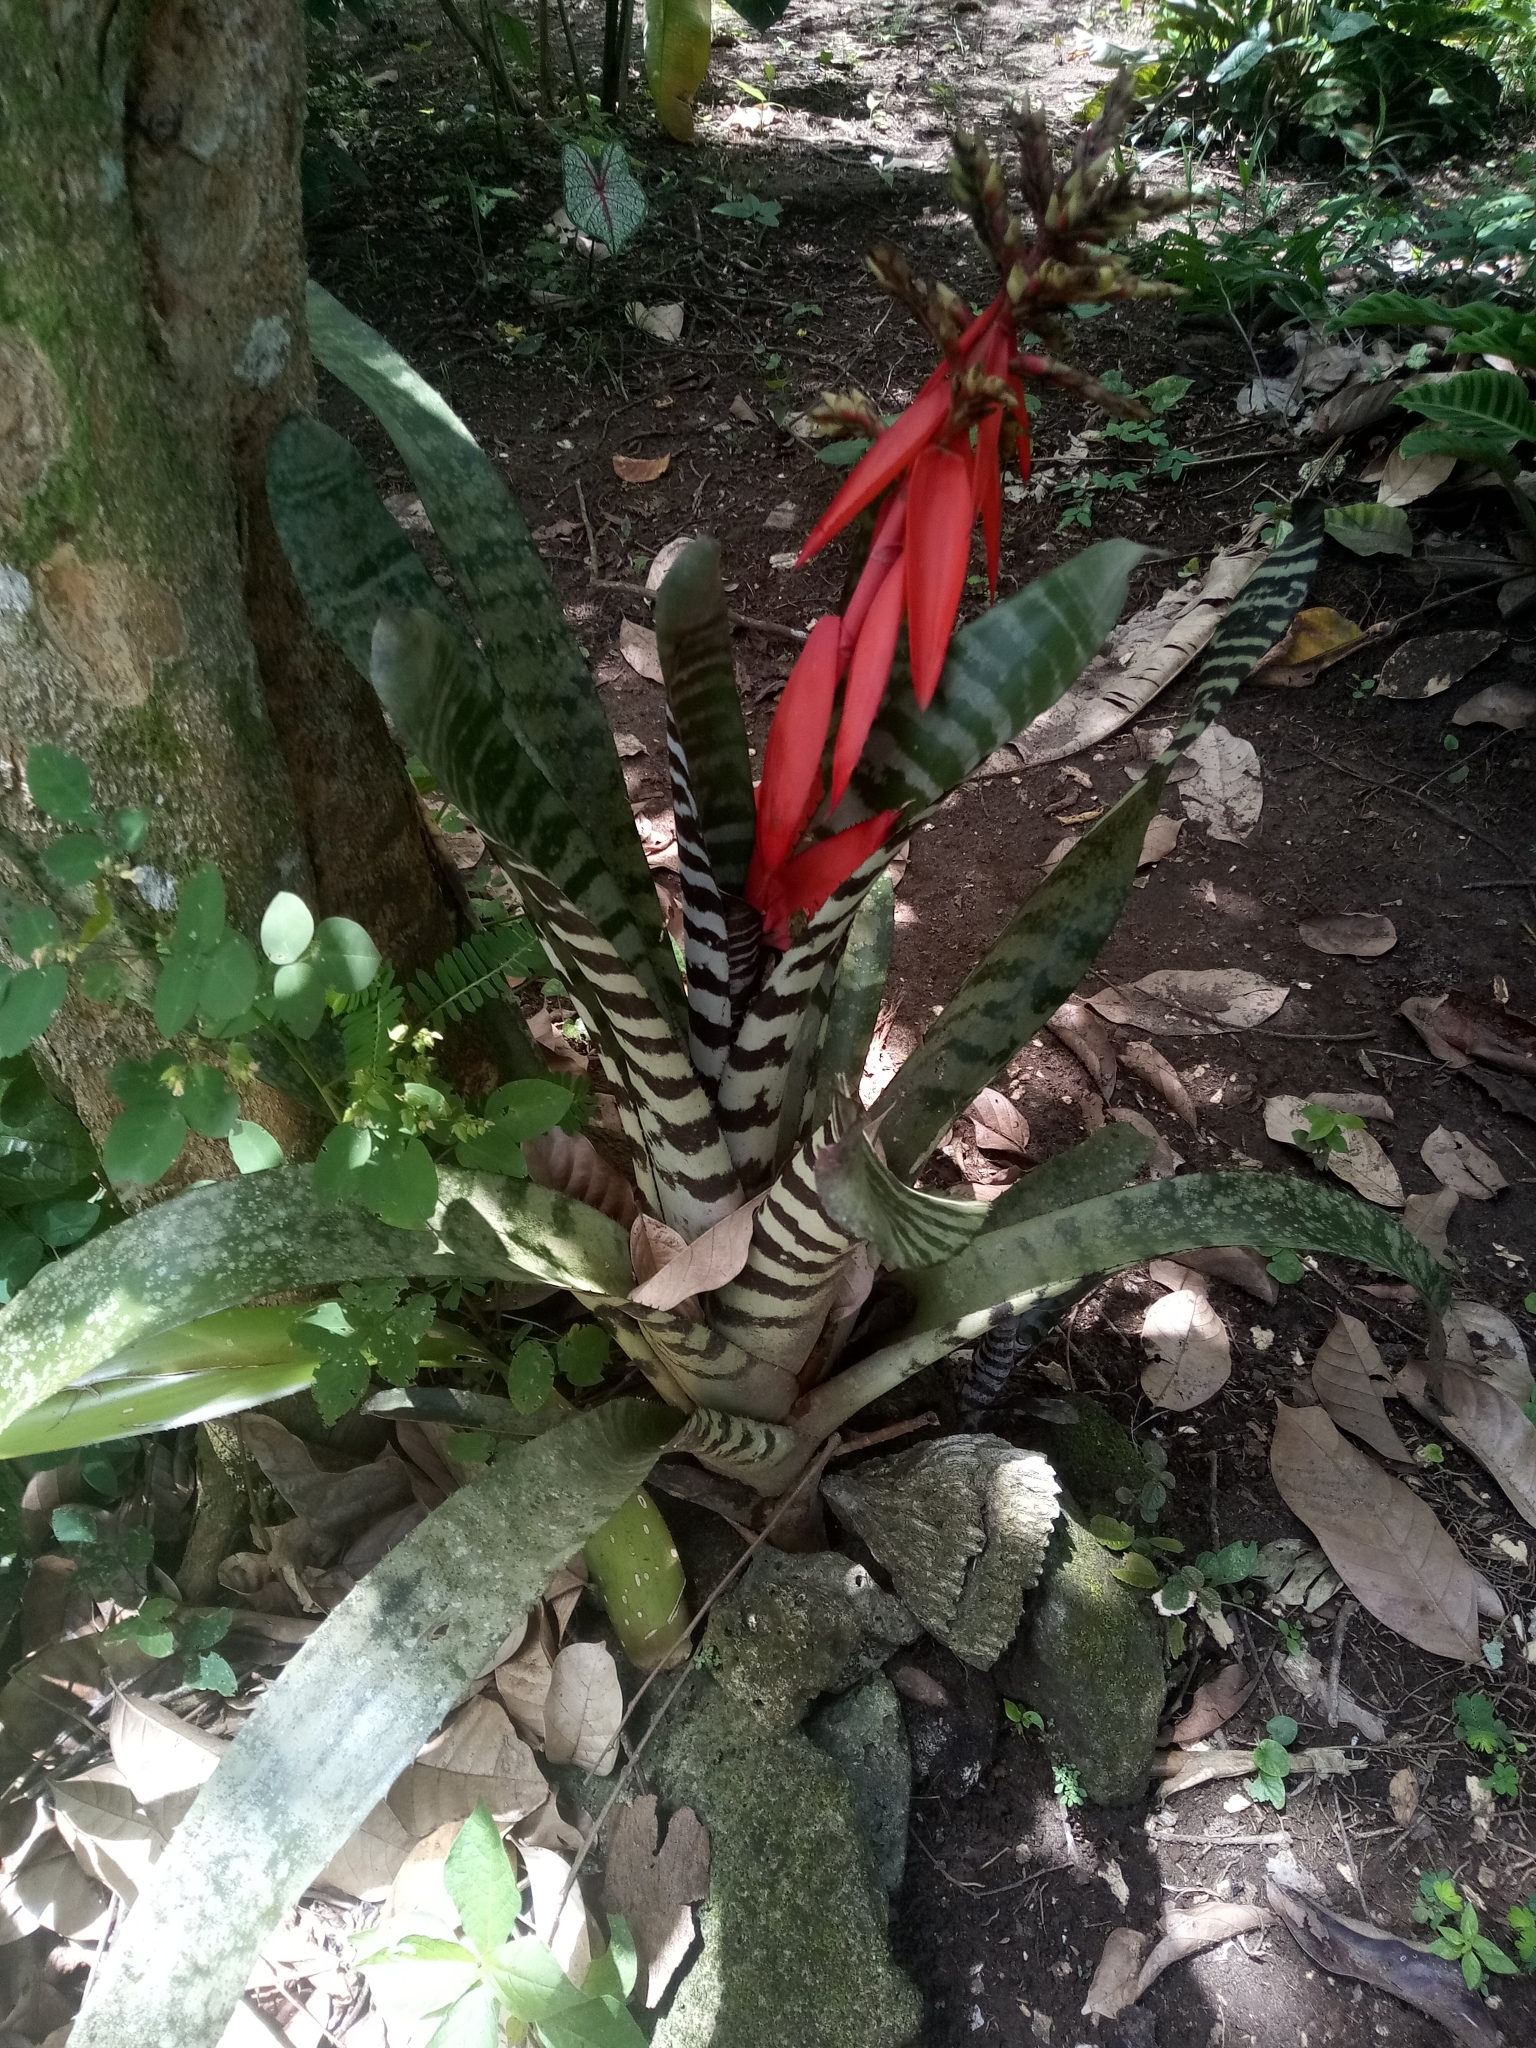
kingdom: Plantae
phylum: Tracheophyta
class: Liliopsida
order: Poales
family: Bromeliaceae
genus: Aechmea
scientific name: Aechmea chantinii
